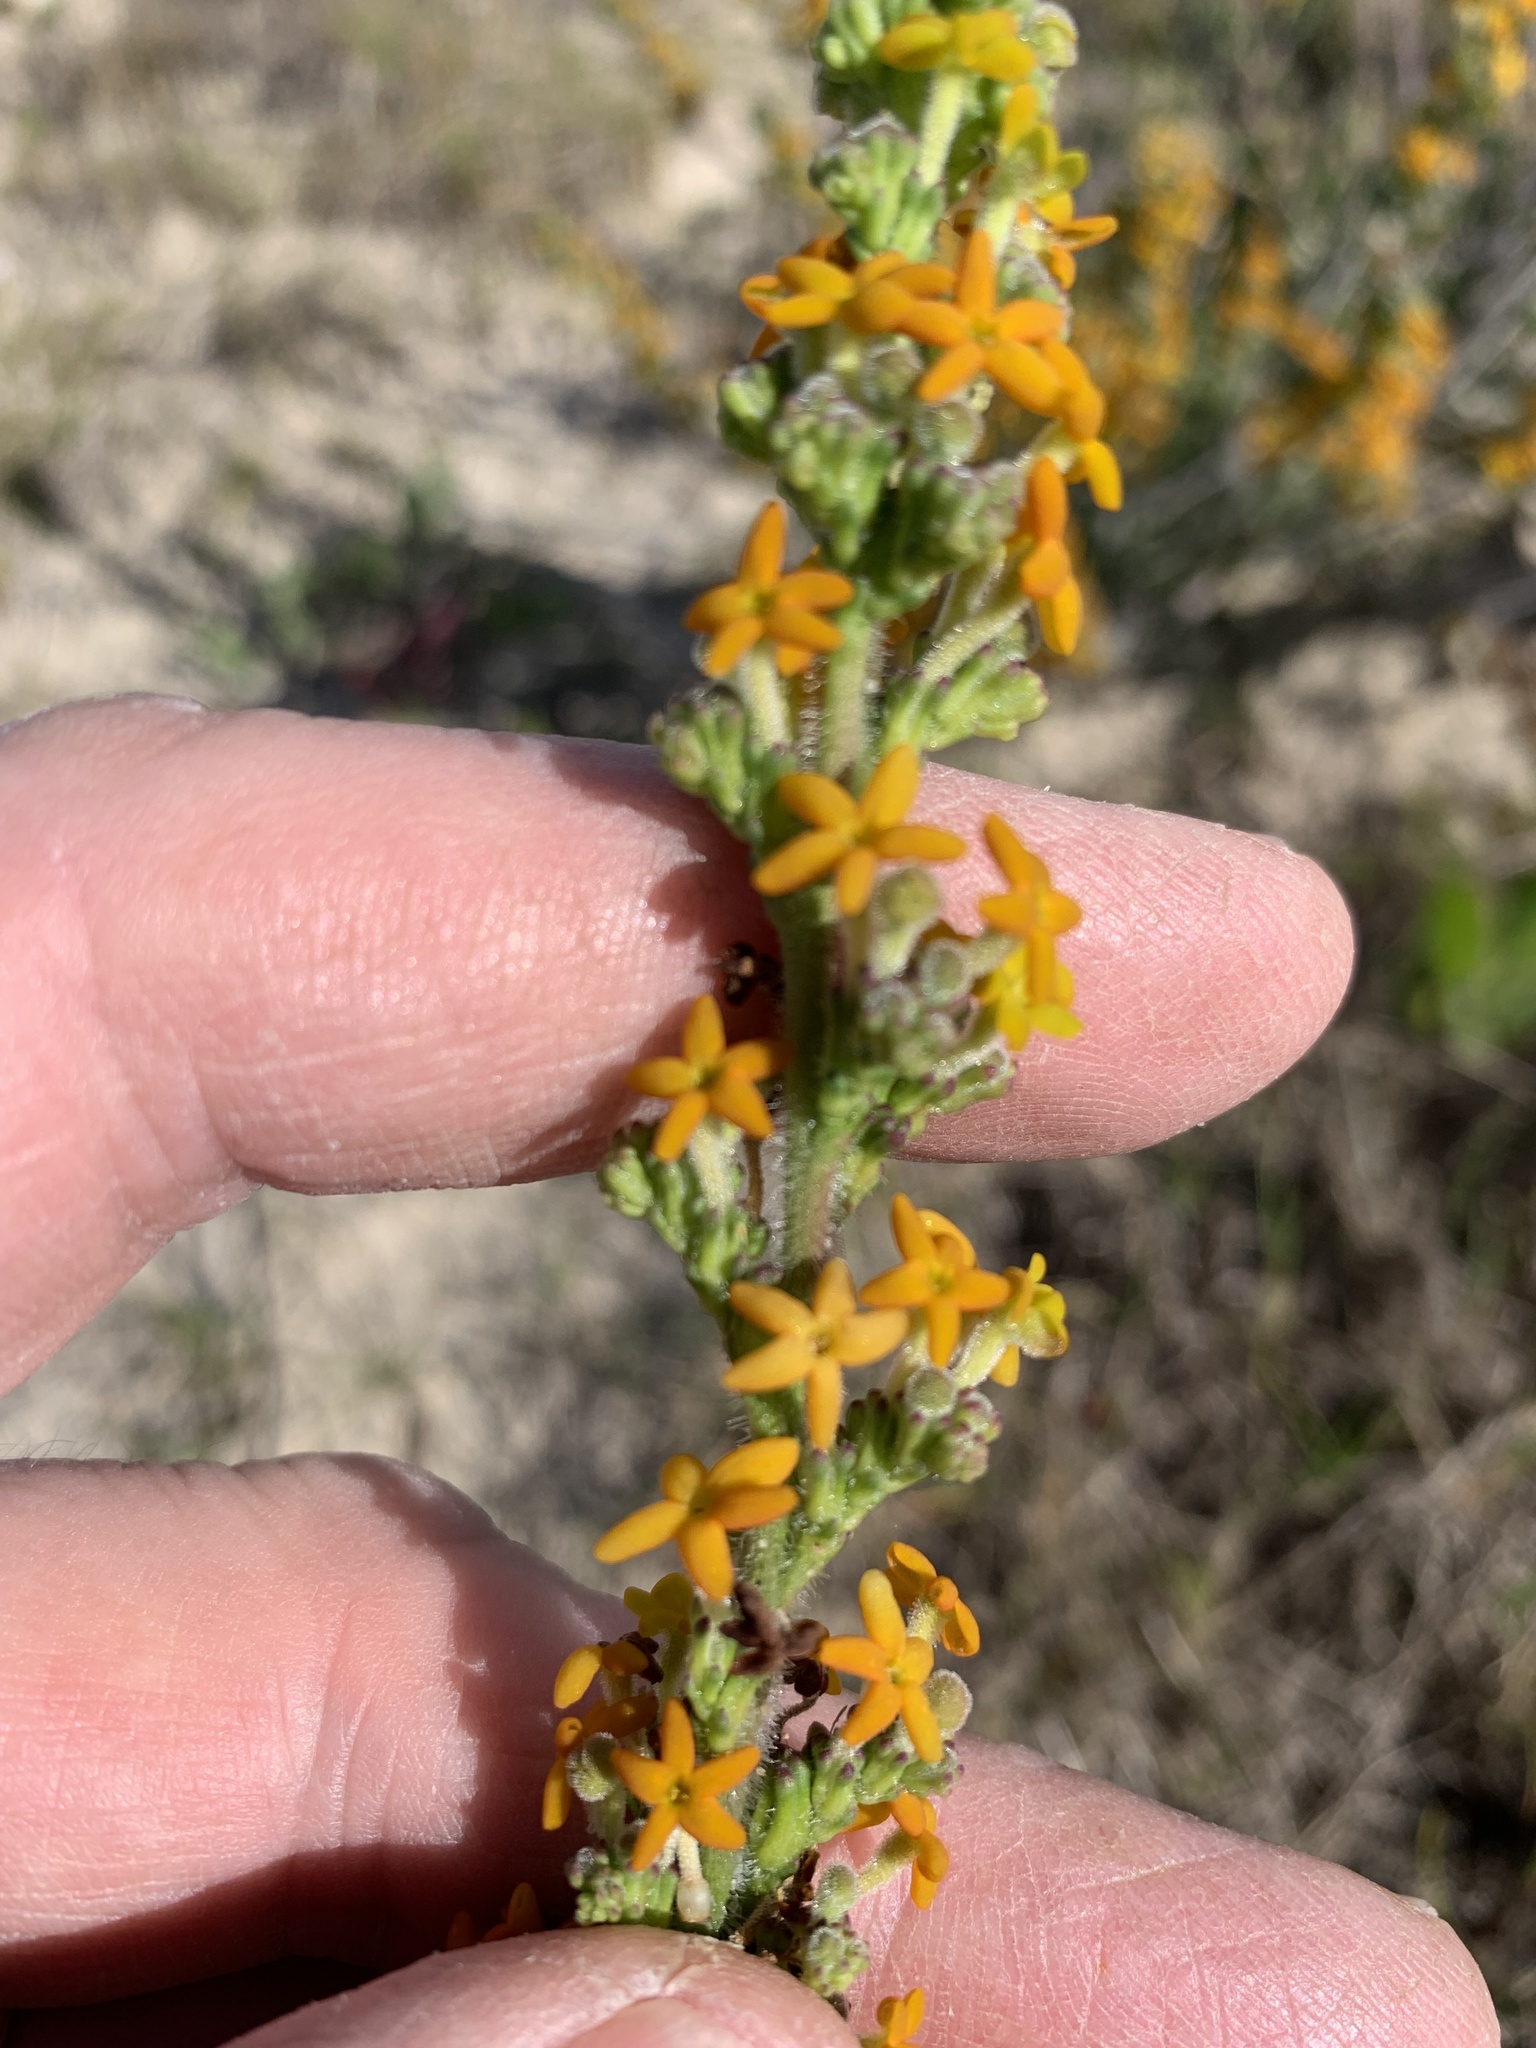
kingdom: Plantae
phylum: Tracheophyta
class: Magnoliopsida
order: Lamiales
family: Scrophulariaceae
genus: Manulea
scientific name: Manulea tomentosa
